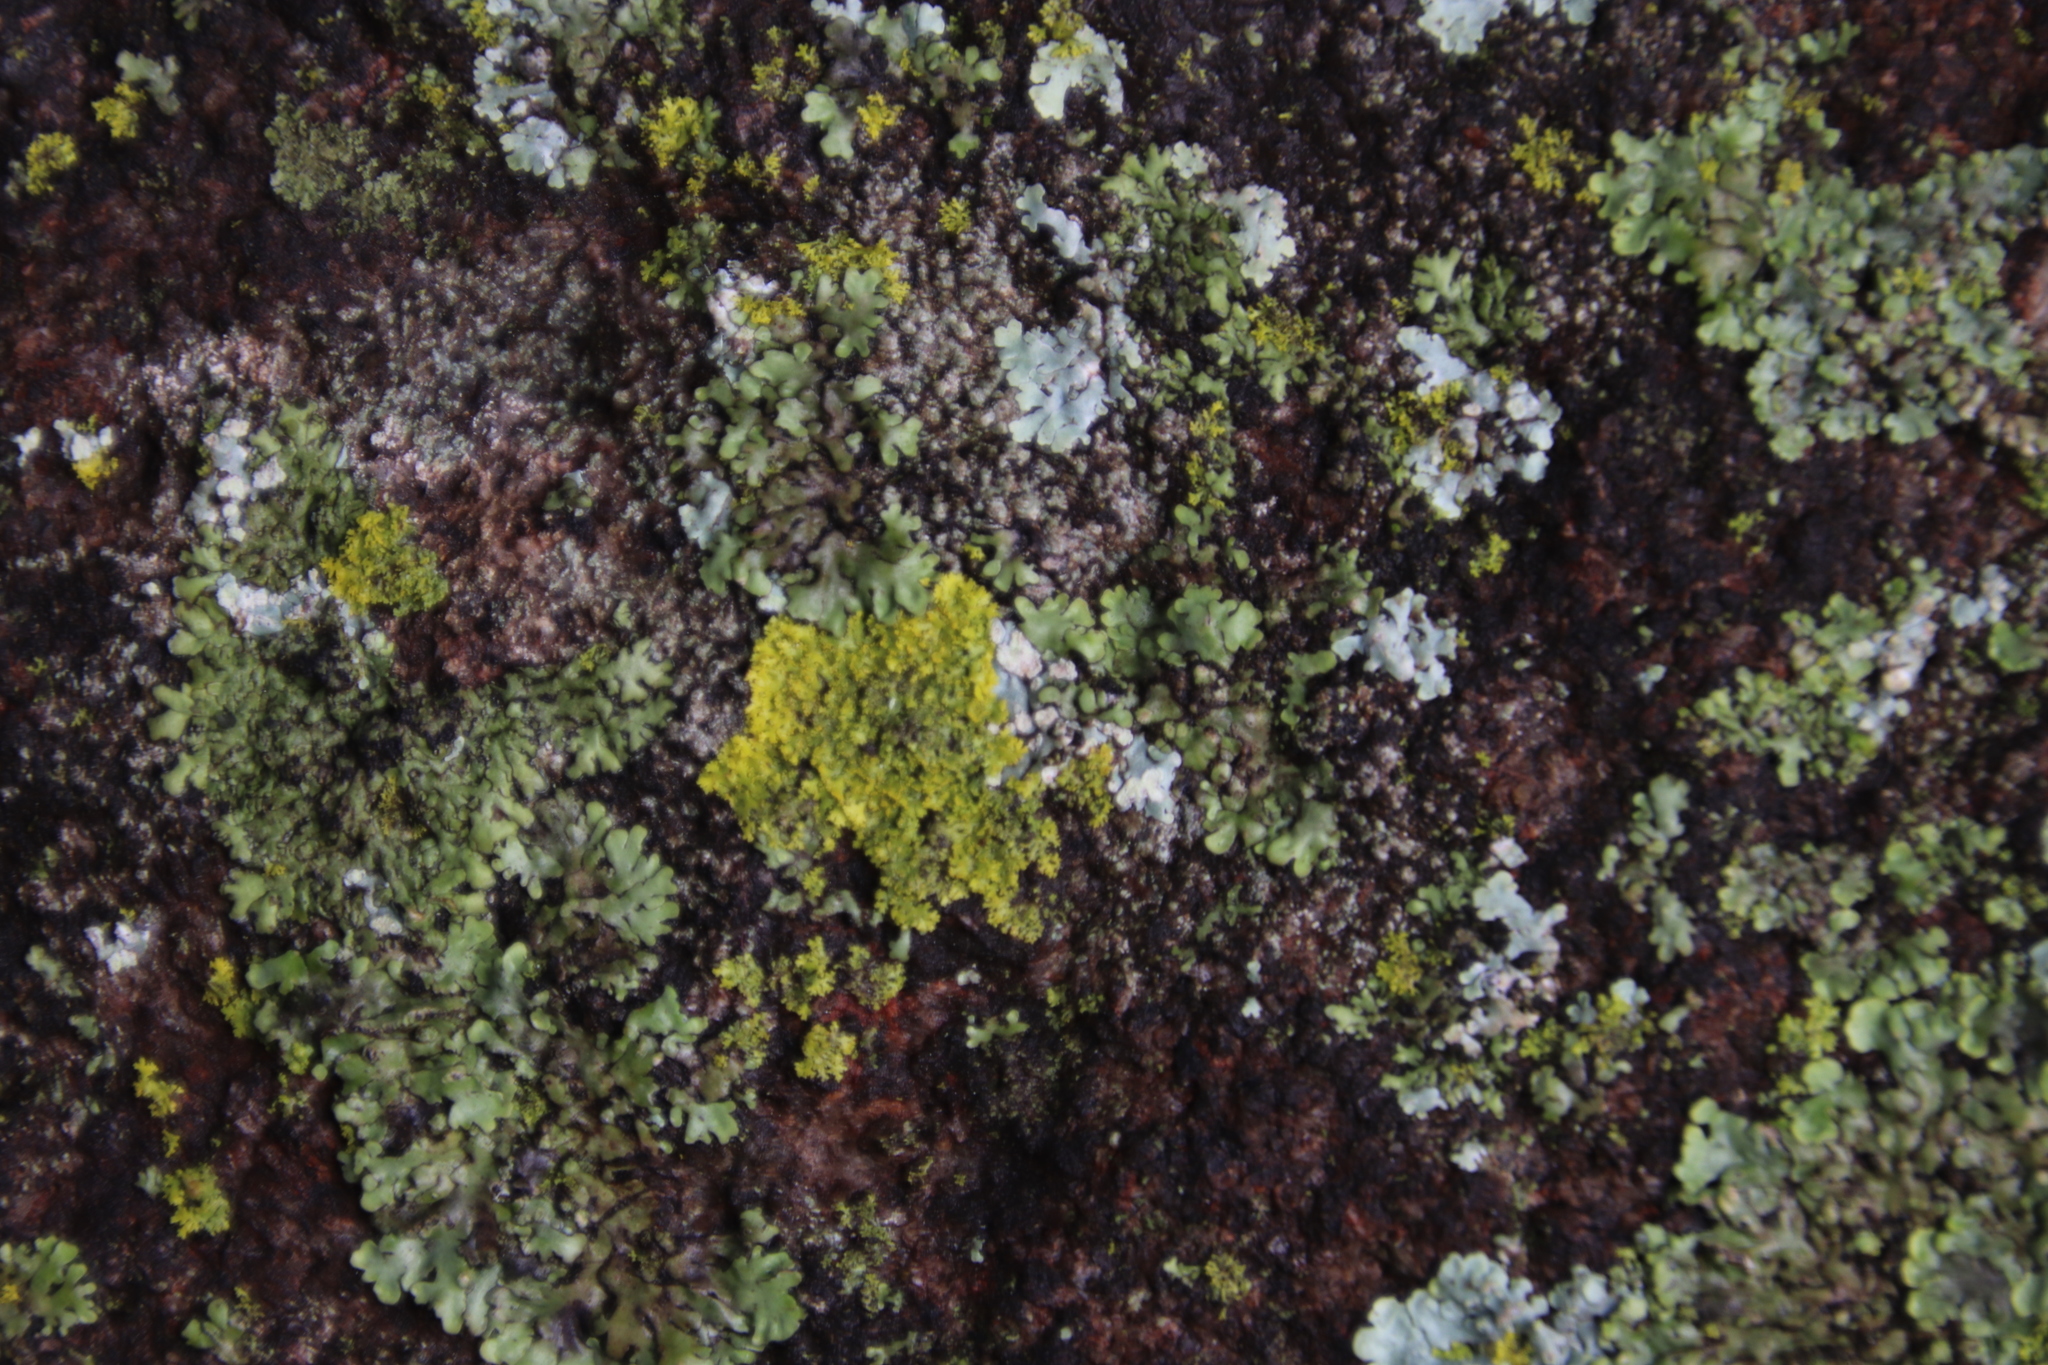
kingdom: Fungi
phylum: Ascomycota
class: Candelariomycetes
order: Candelariales
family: Candelariaceae
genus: Candelaria
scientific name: Candelaria concolor
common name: Candleflame lichen
